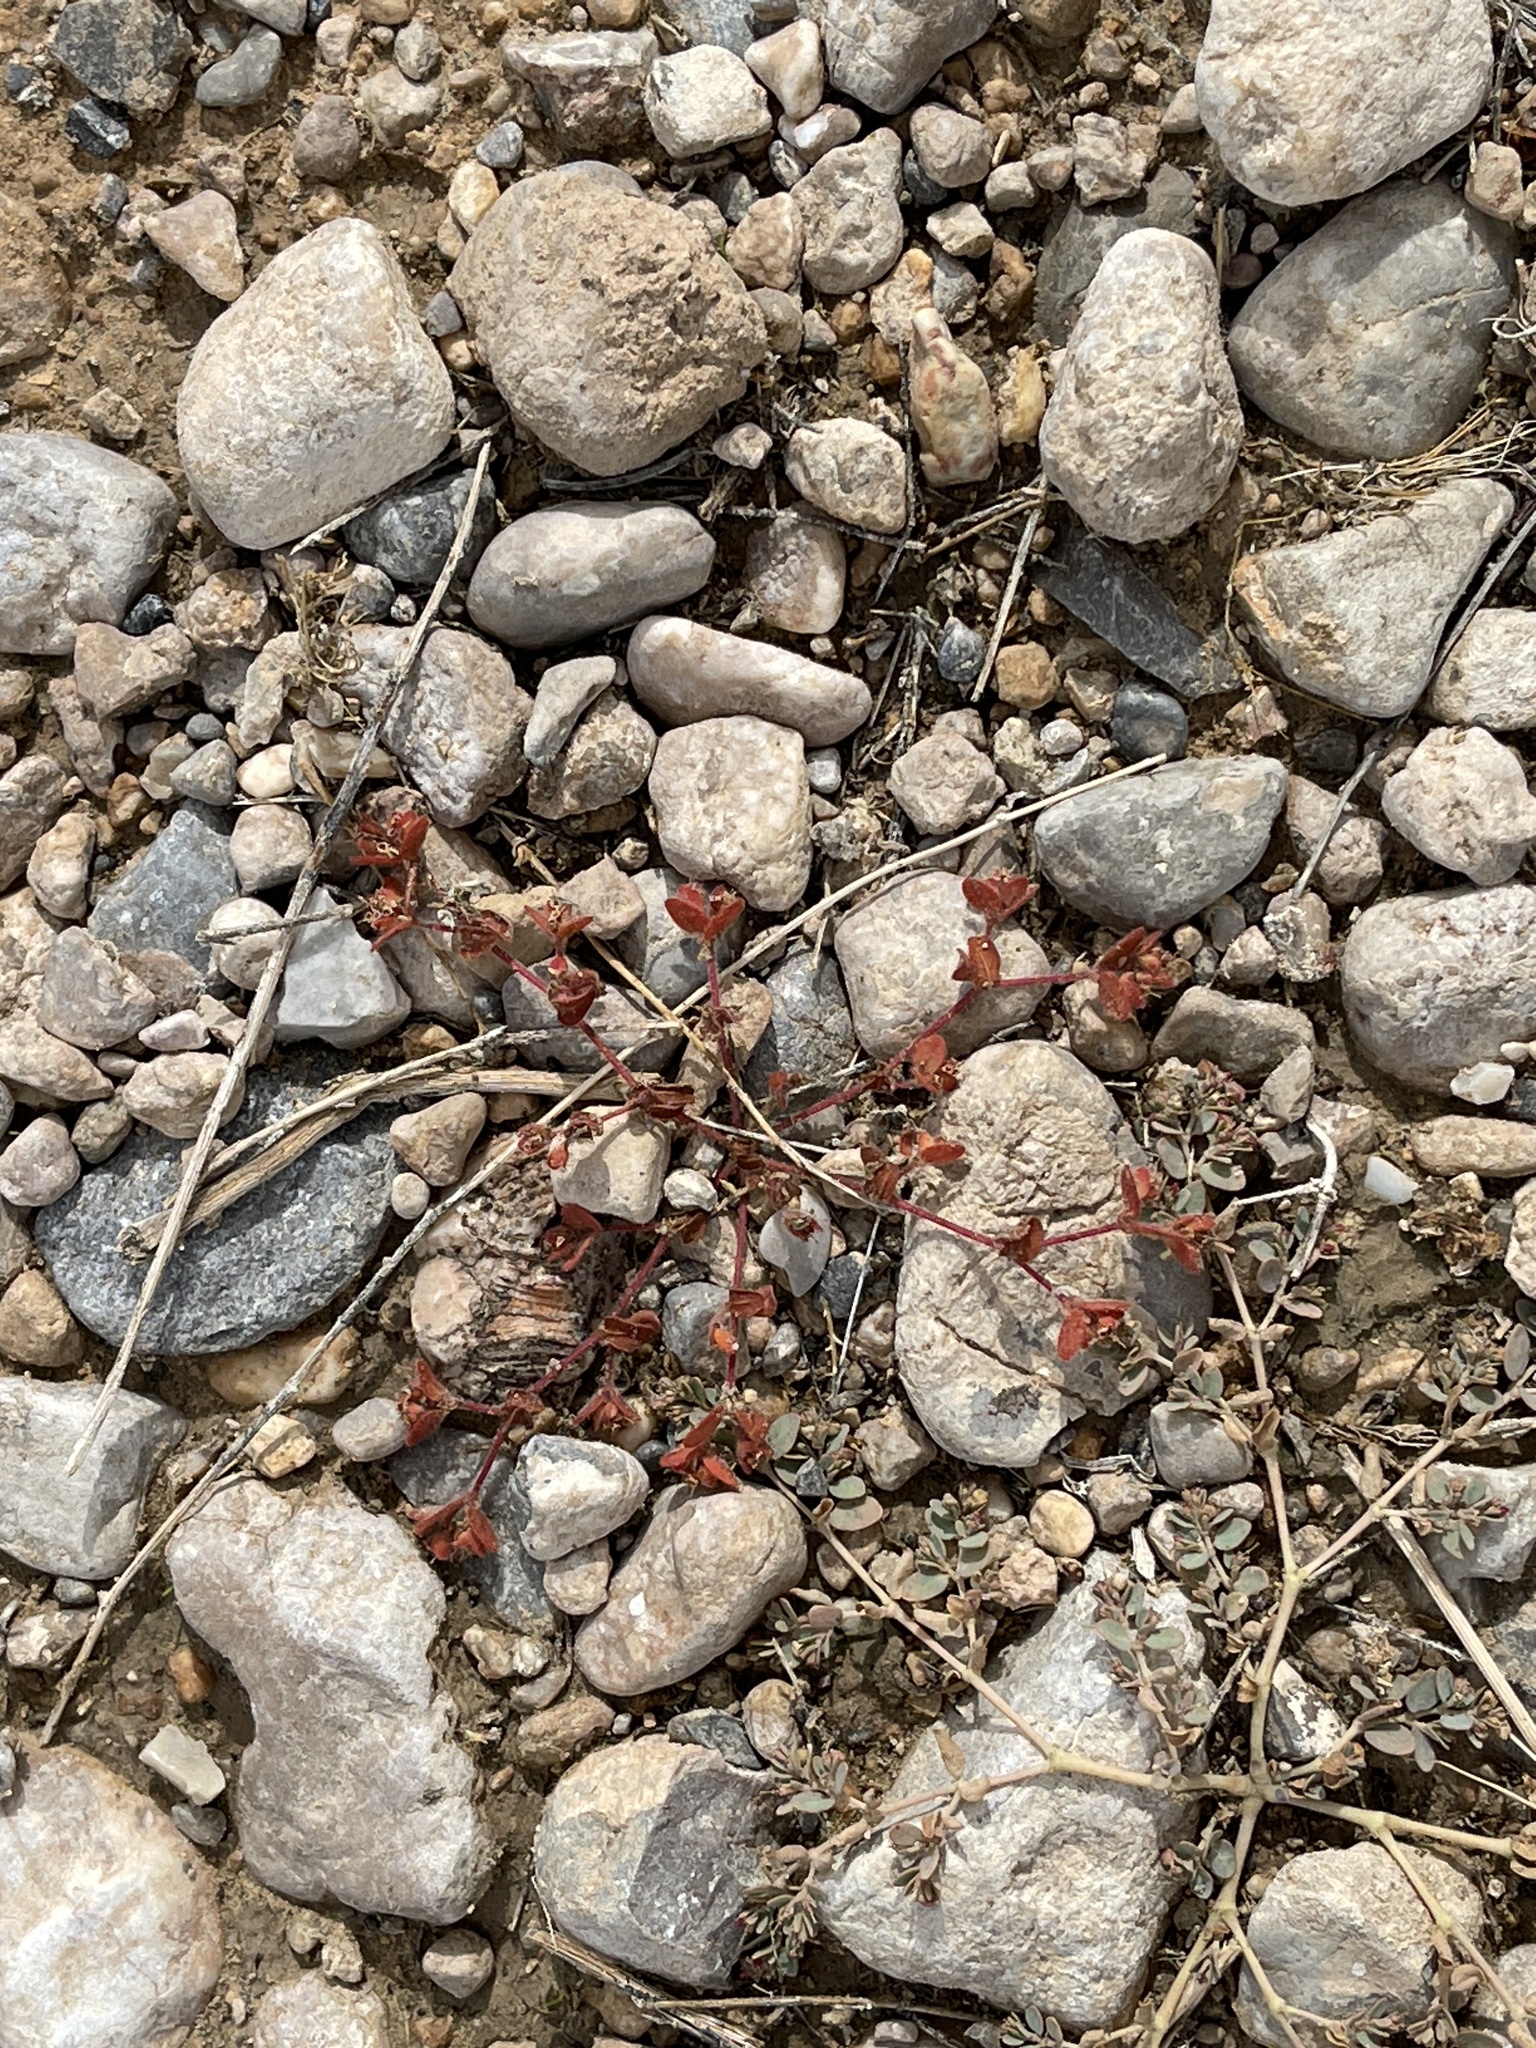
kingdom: Plantae
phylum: Tracheophyta
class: Magnoliopsida
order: Malpighiales
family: Euphorbiaceae
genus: Euphorbia
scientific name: Euphorbia setiloba
